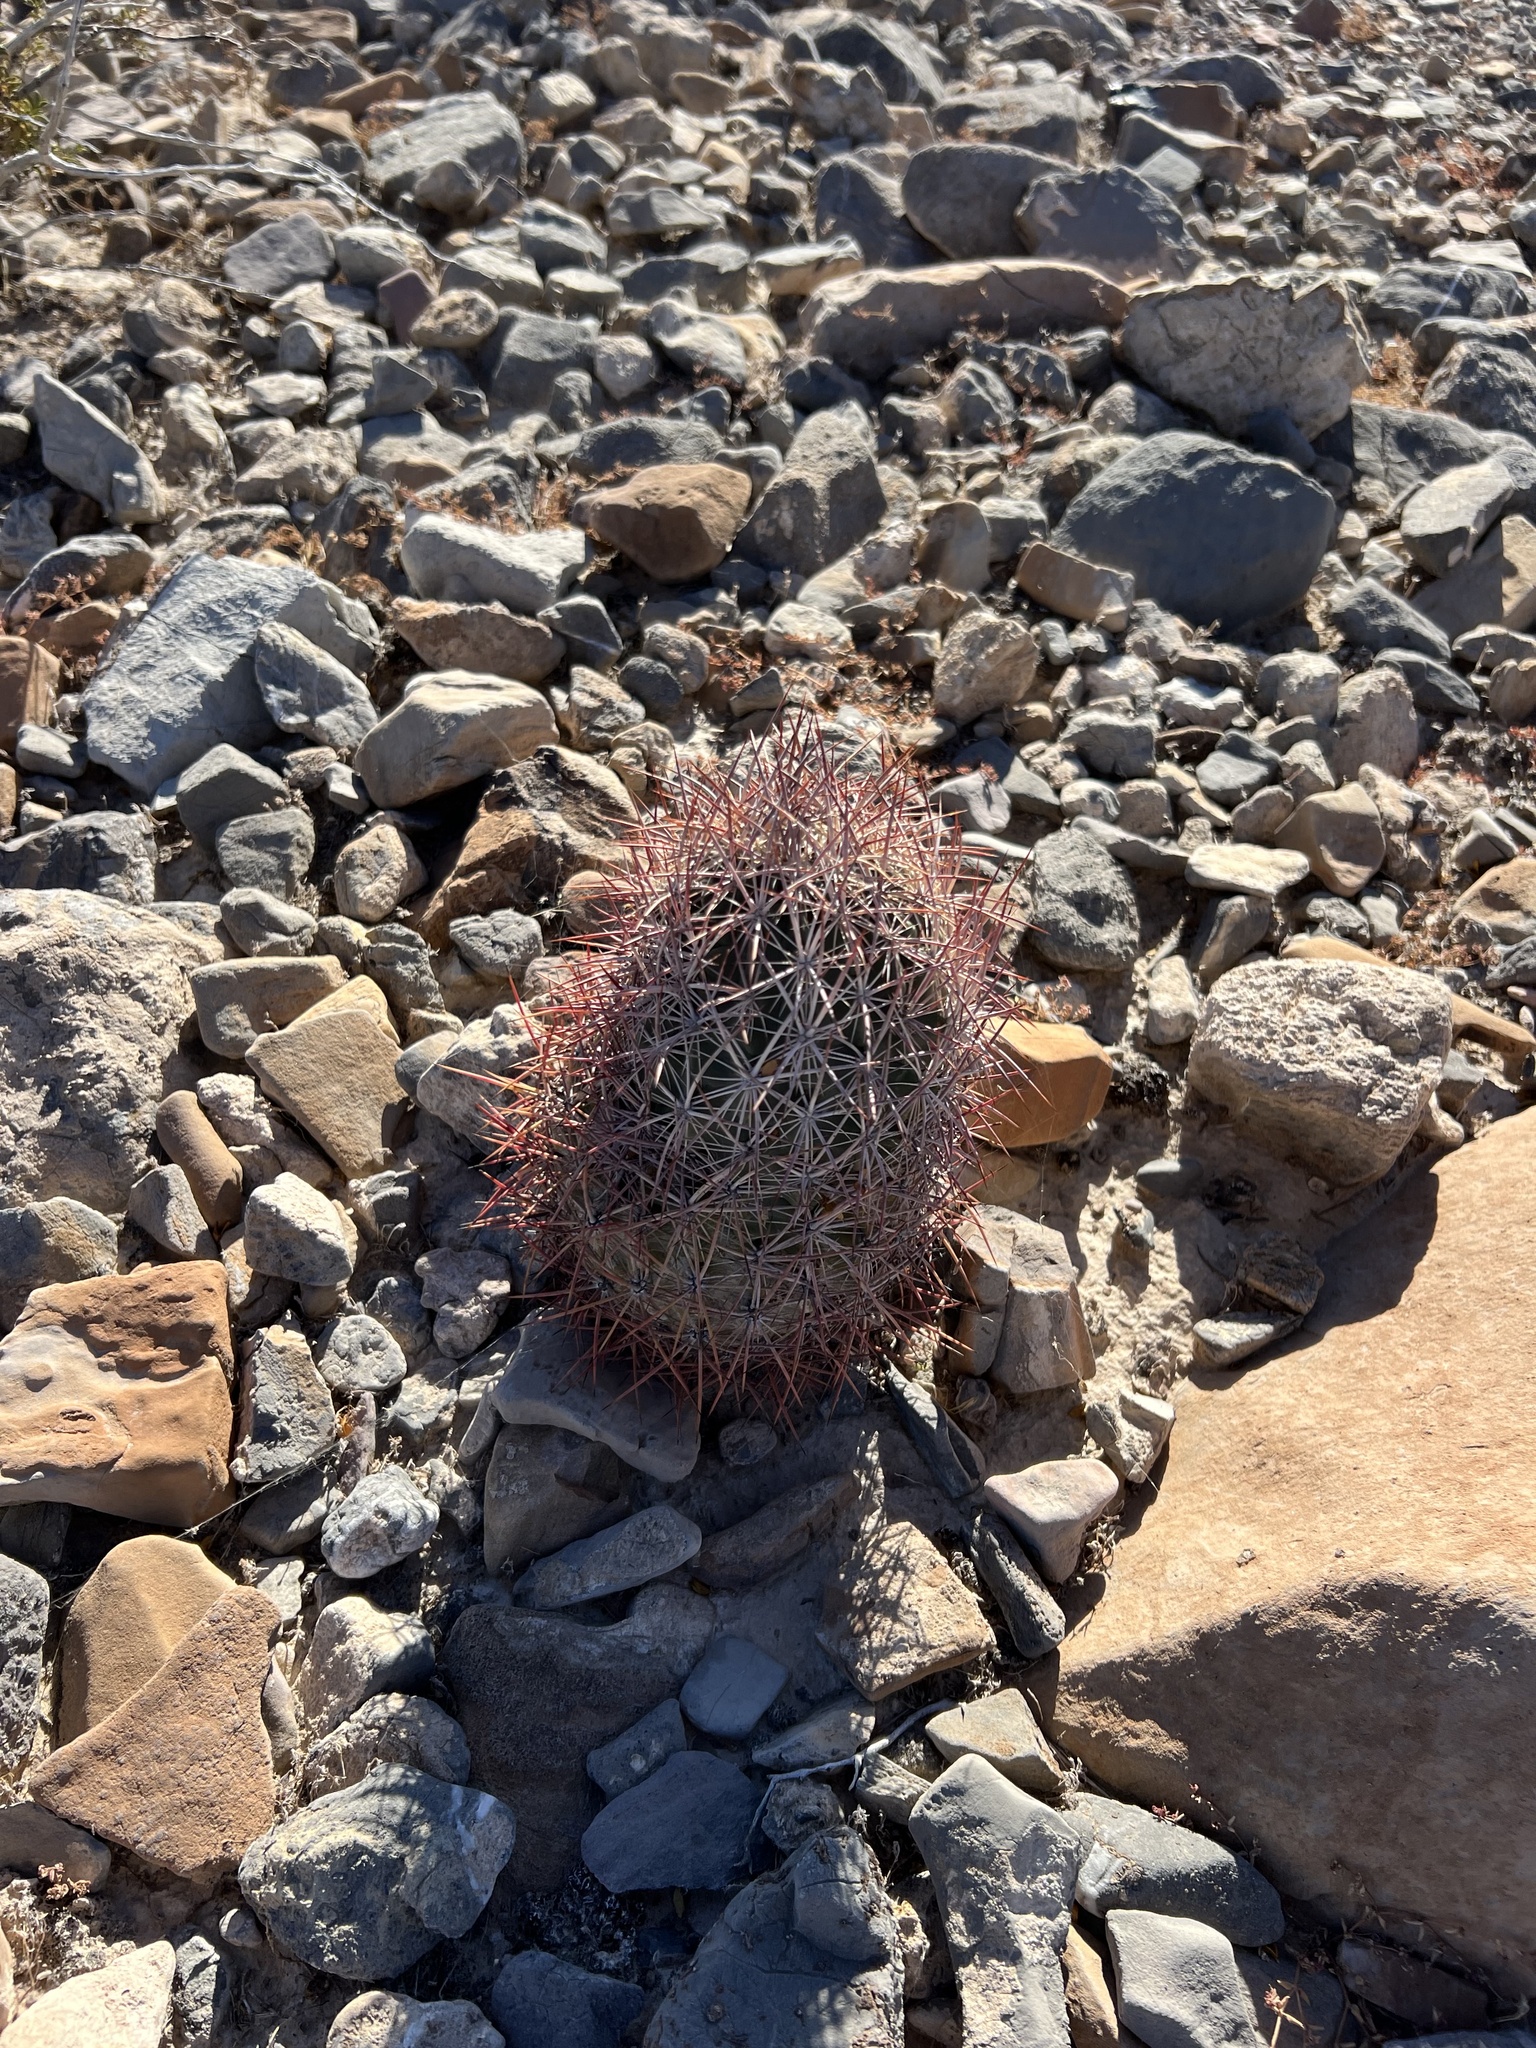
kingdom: Plantae
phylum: Tracheophyta
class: Magnoliopsida
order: Caryophyllales
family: Cactaceae
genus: Sclerocactus
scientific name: Sclerocactus johnsonii
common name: Eight-spine fishhook cactus
